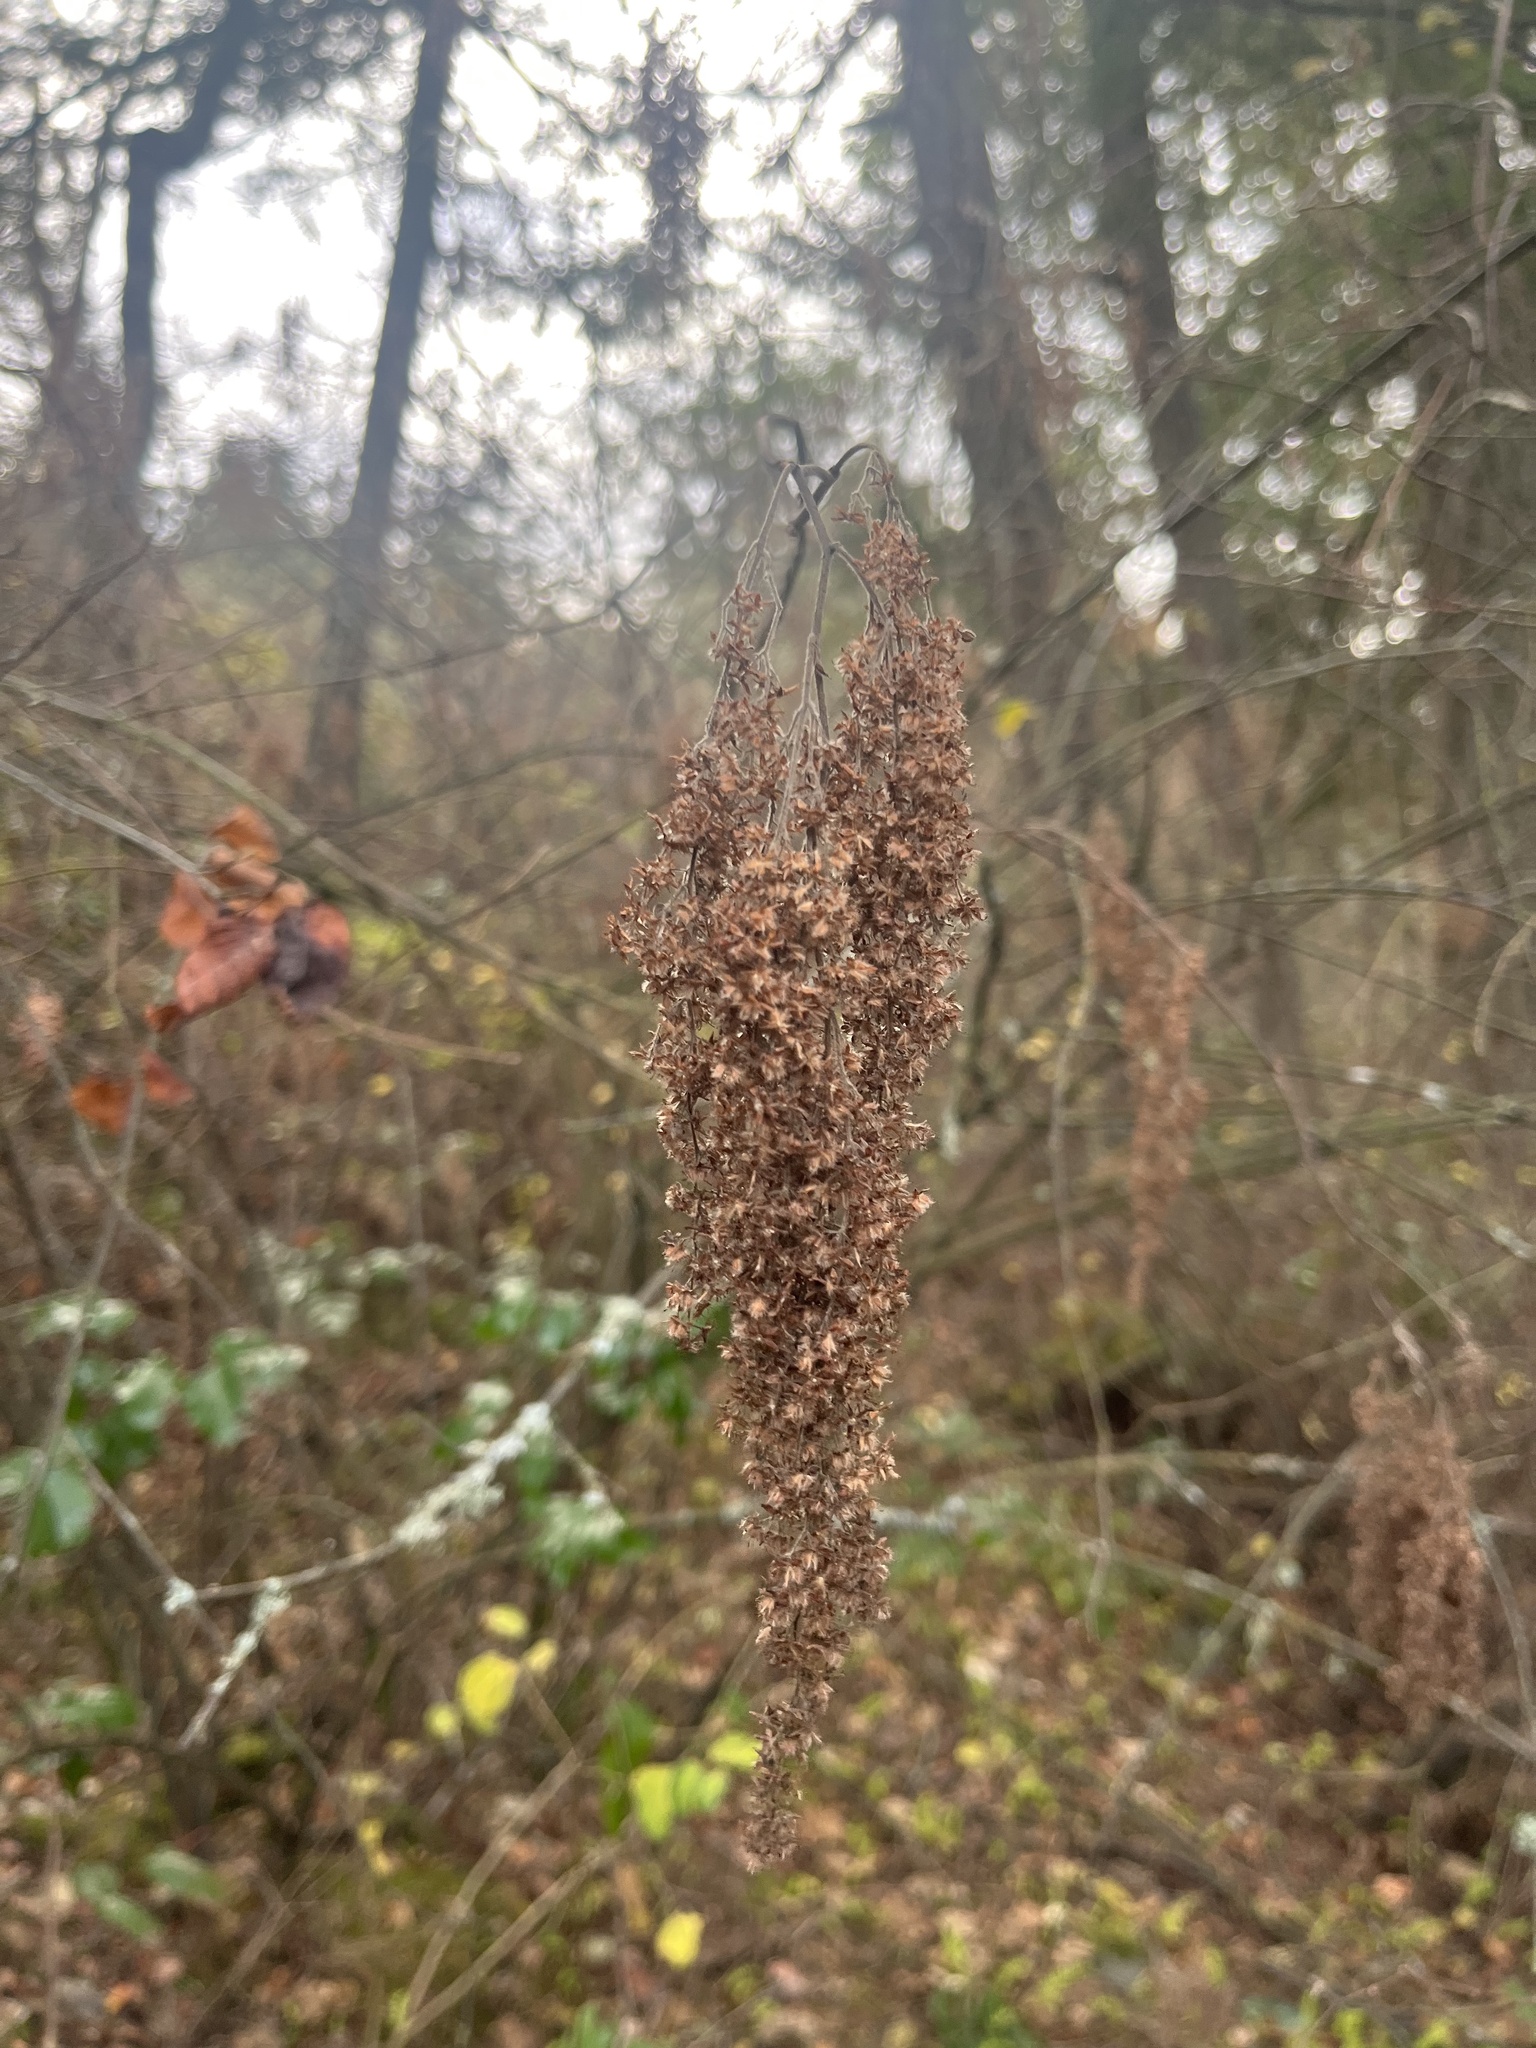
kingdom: Plantae
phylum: Tracheophyta
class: Magnoliopsida
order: Rosales
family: Rosaceae
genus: Holodiscus
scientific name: Holodiscus discolor
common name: Oceanspray
